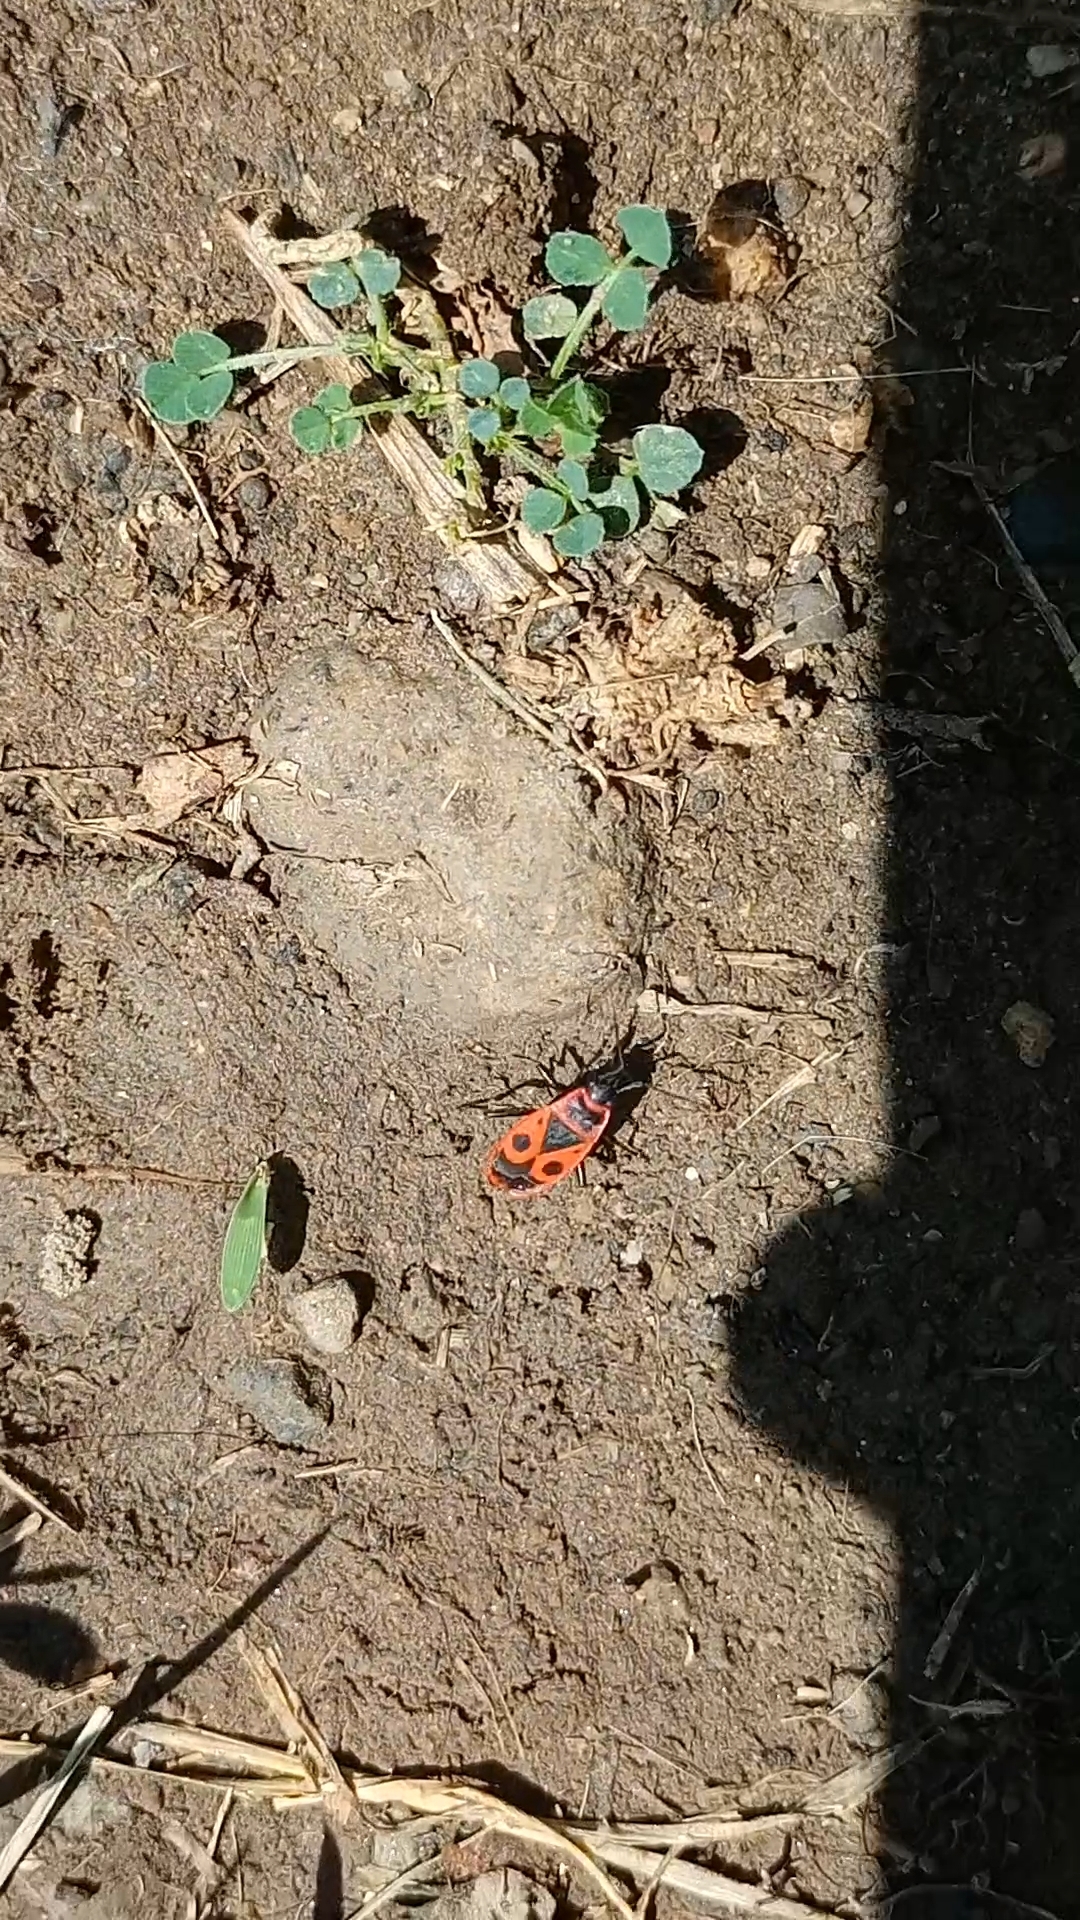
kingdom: Animalia
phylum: Arthropoda
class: Insecta
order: Hemiptera
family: Pyrrhocoridae
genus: Pyrrhocoris
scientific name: Pyrrhocoris apterus
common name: Firebug
